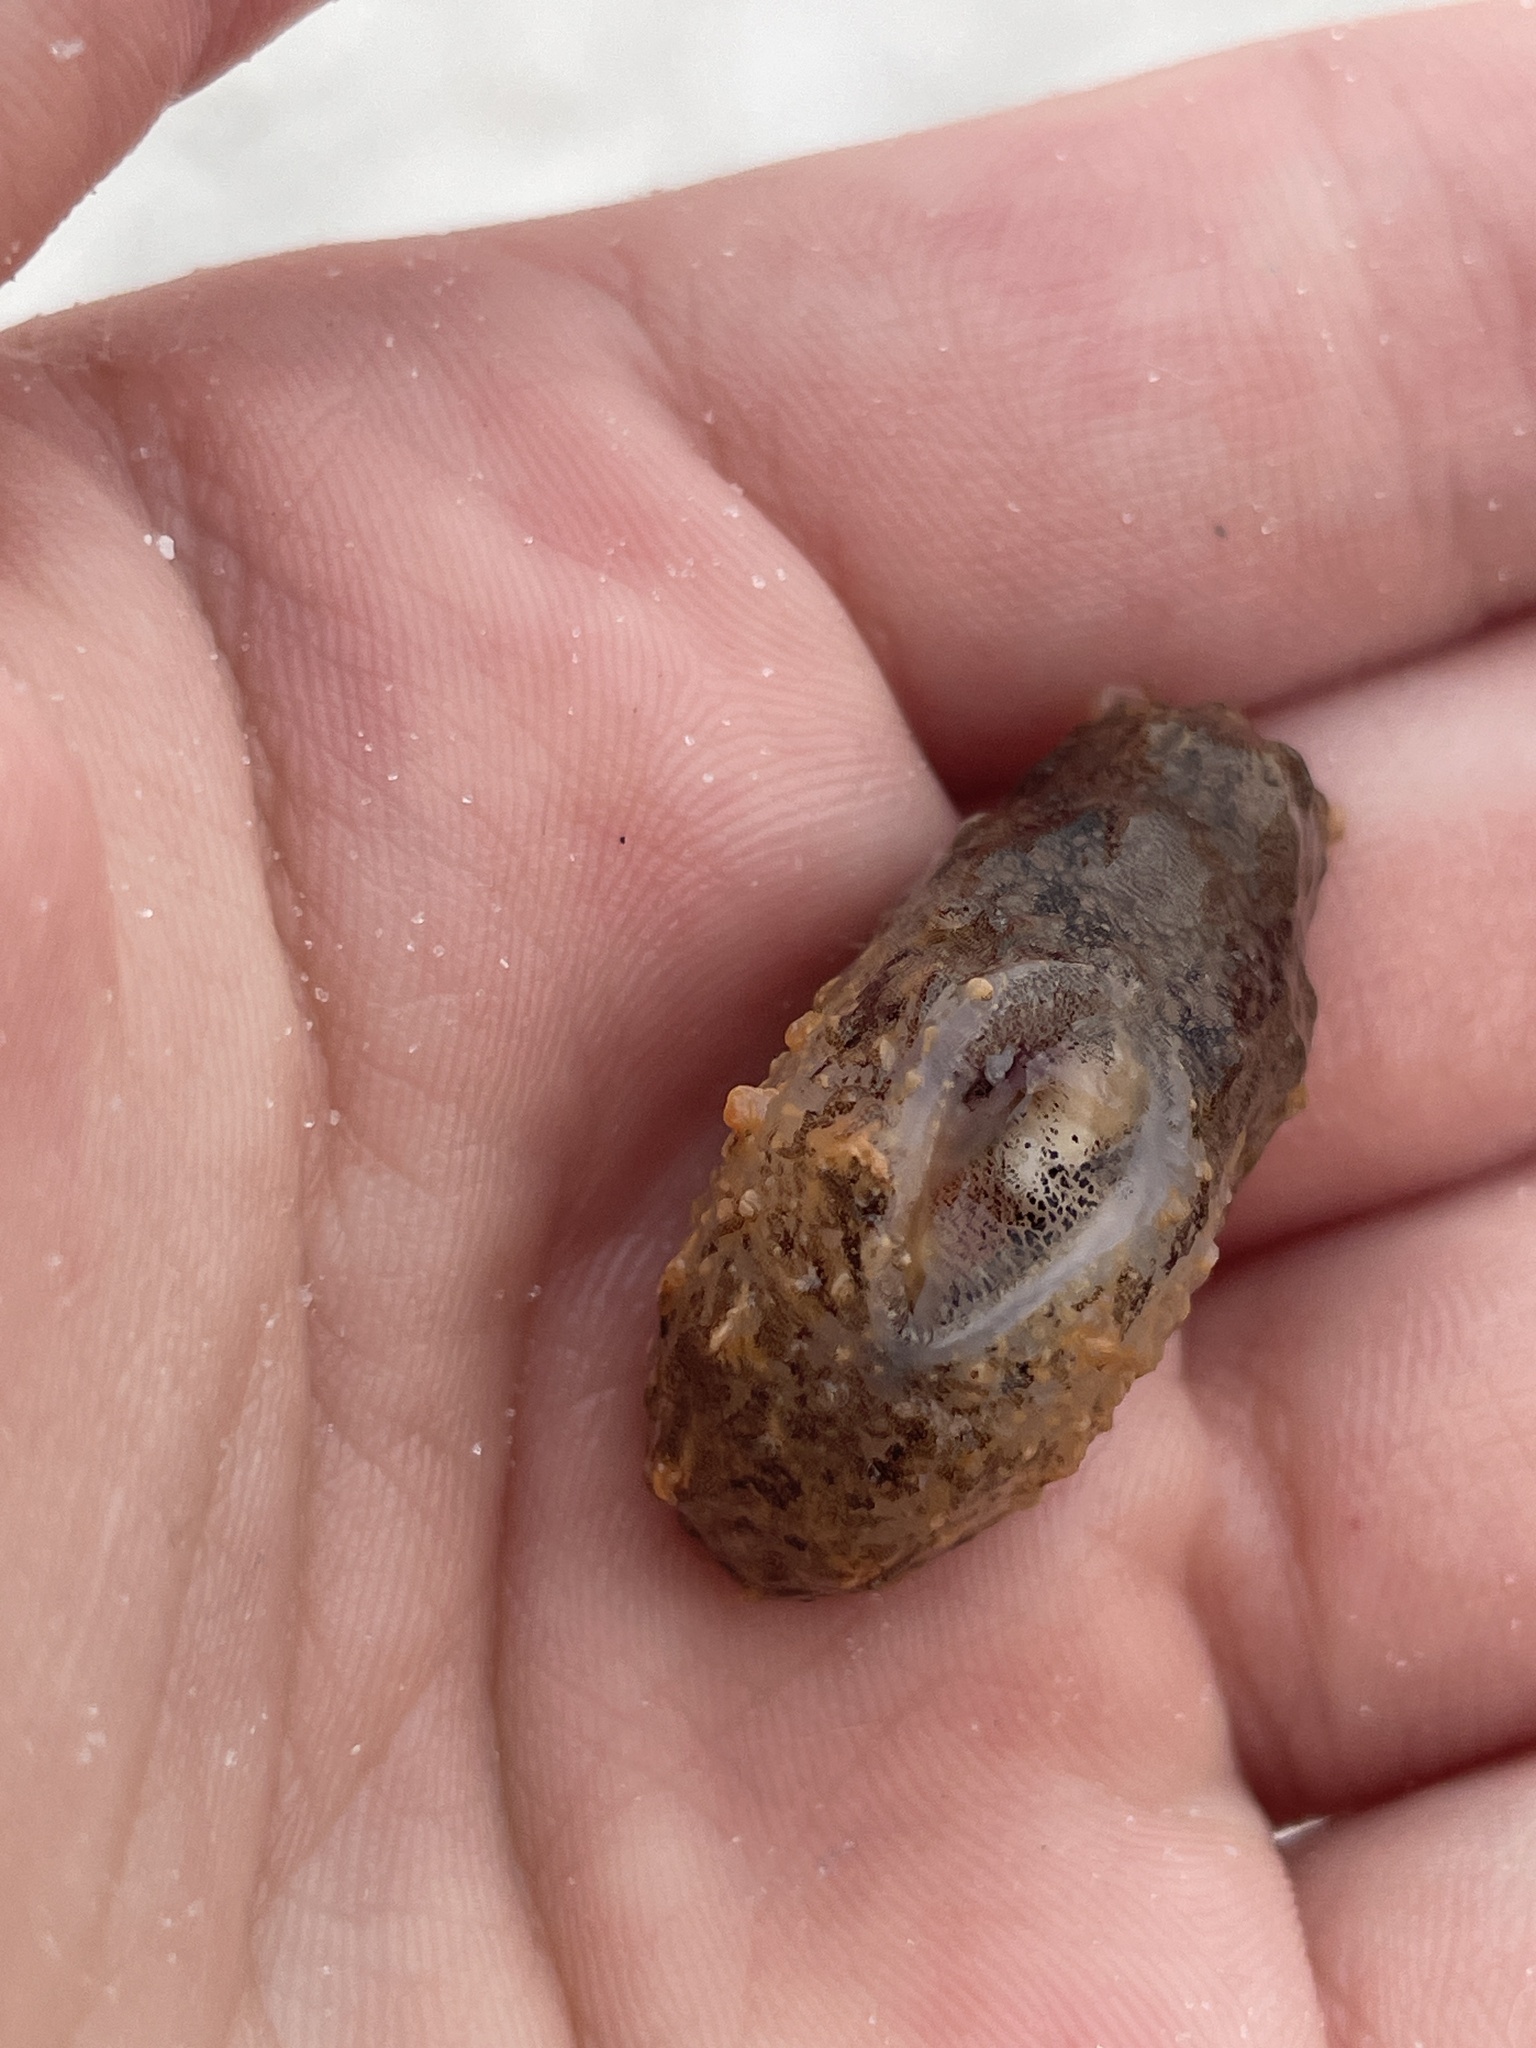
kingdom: Animalia
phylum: Mollusca
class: Gastropoda
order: Aplysiida
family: Aplysiidae
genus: Bursatella
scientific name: Bursatella leachii
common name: Shaggy sea hare
